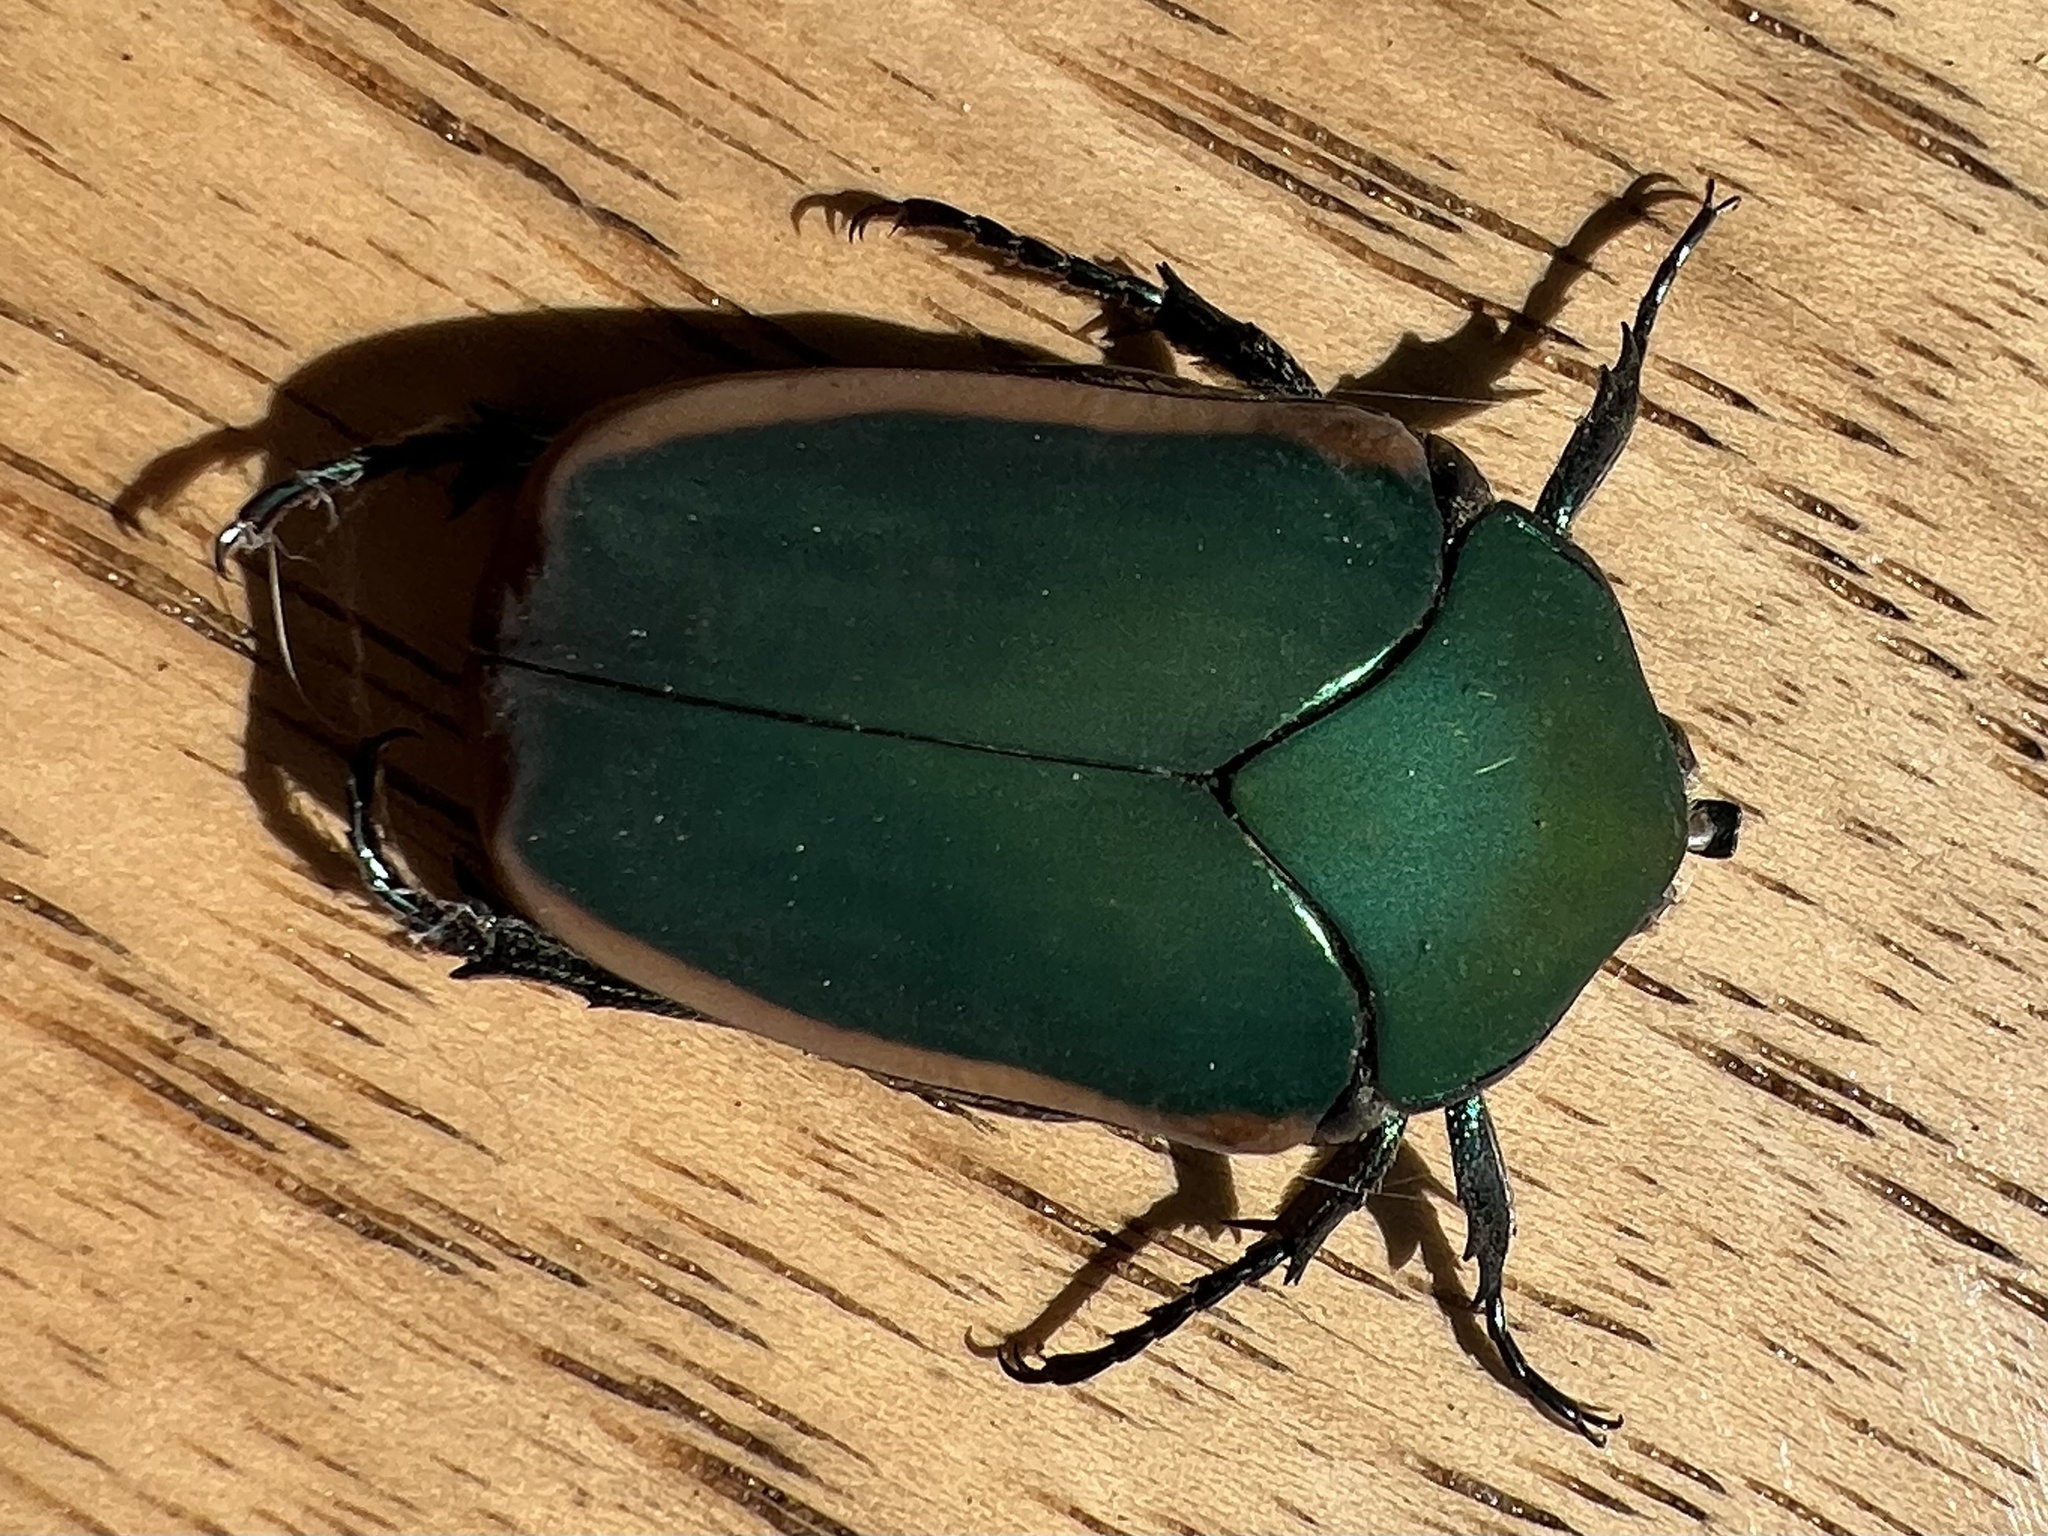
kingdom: Animalia
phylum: Arthropoda
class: Insecta
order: Coleoptera
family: Scarabaeidae
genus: Cotinis
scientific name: Cotinis mutabilis
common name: Figeater beetle
